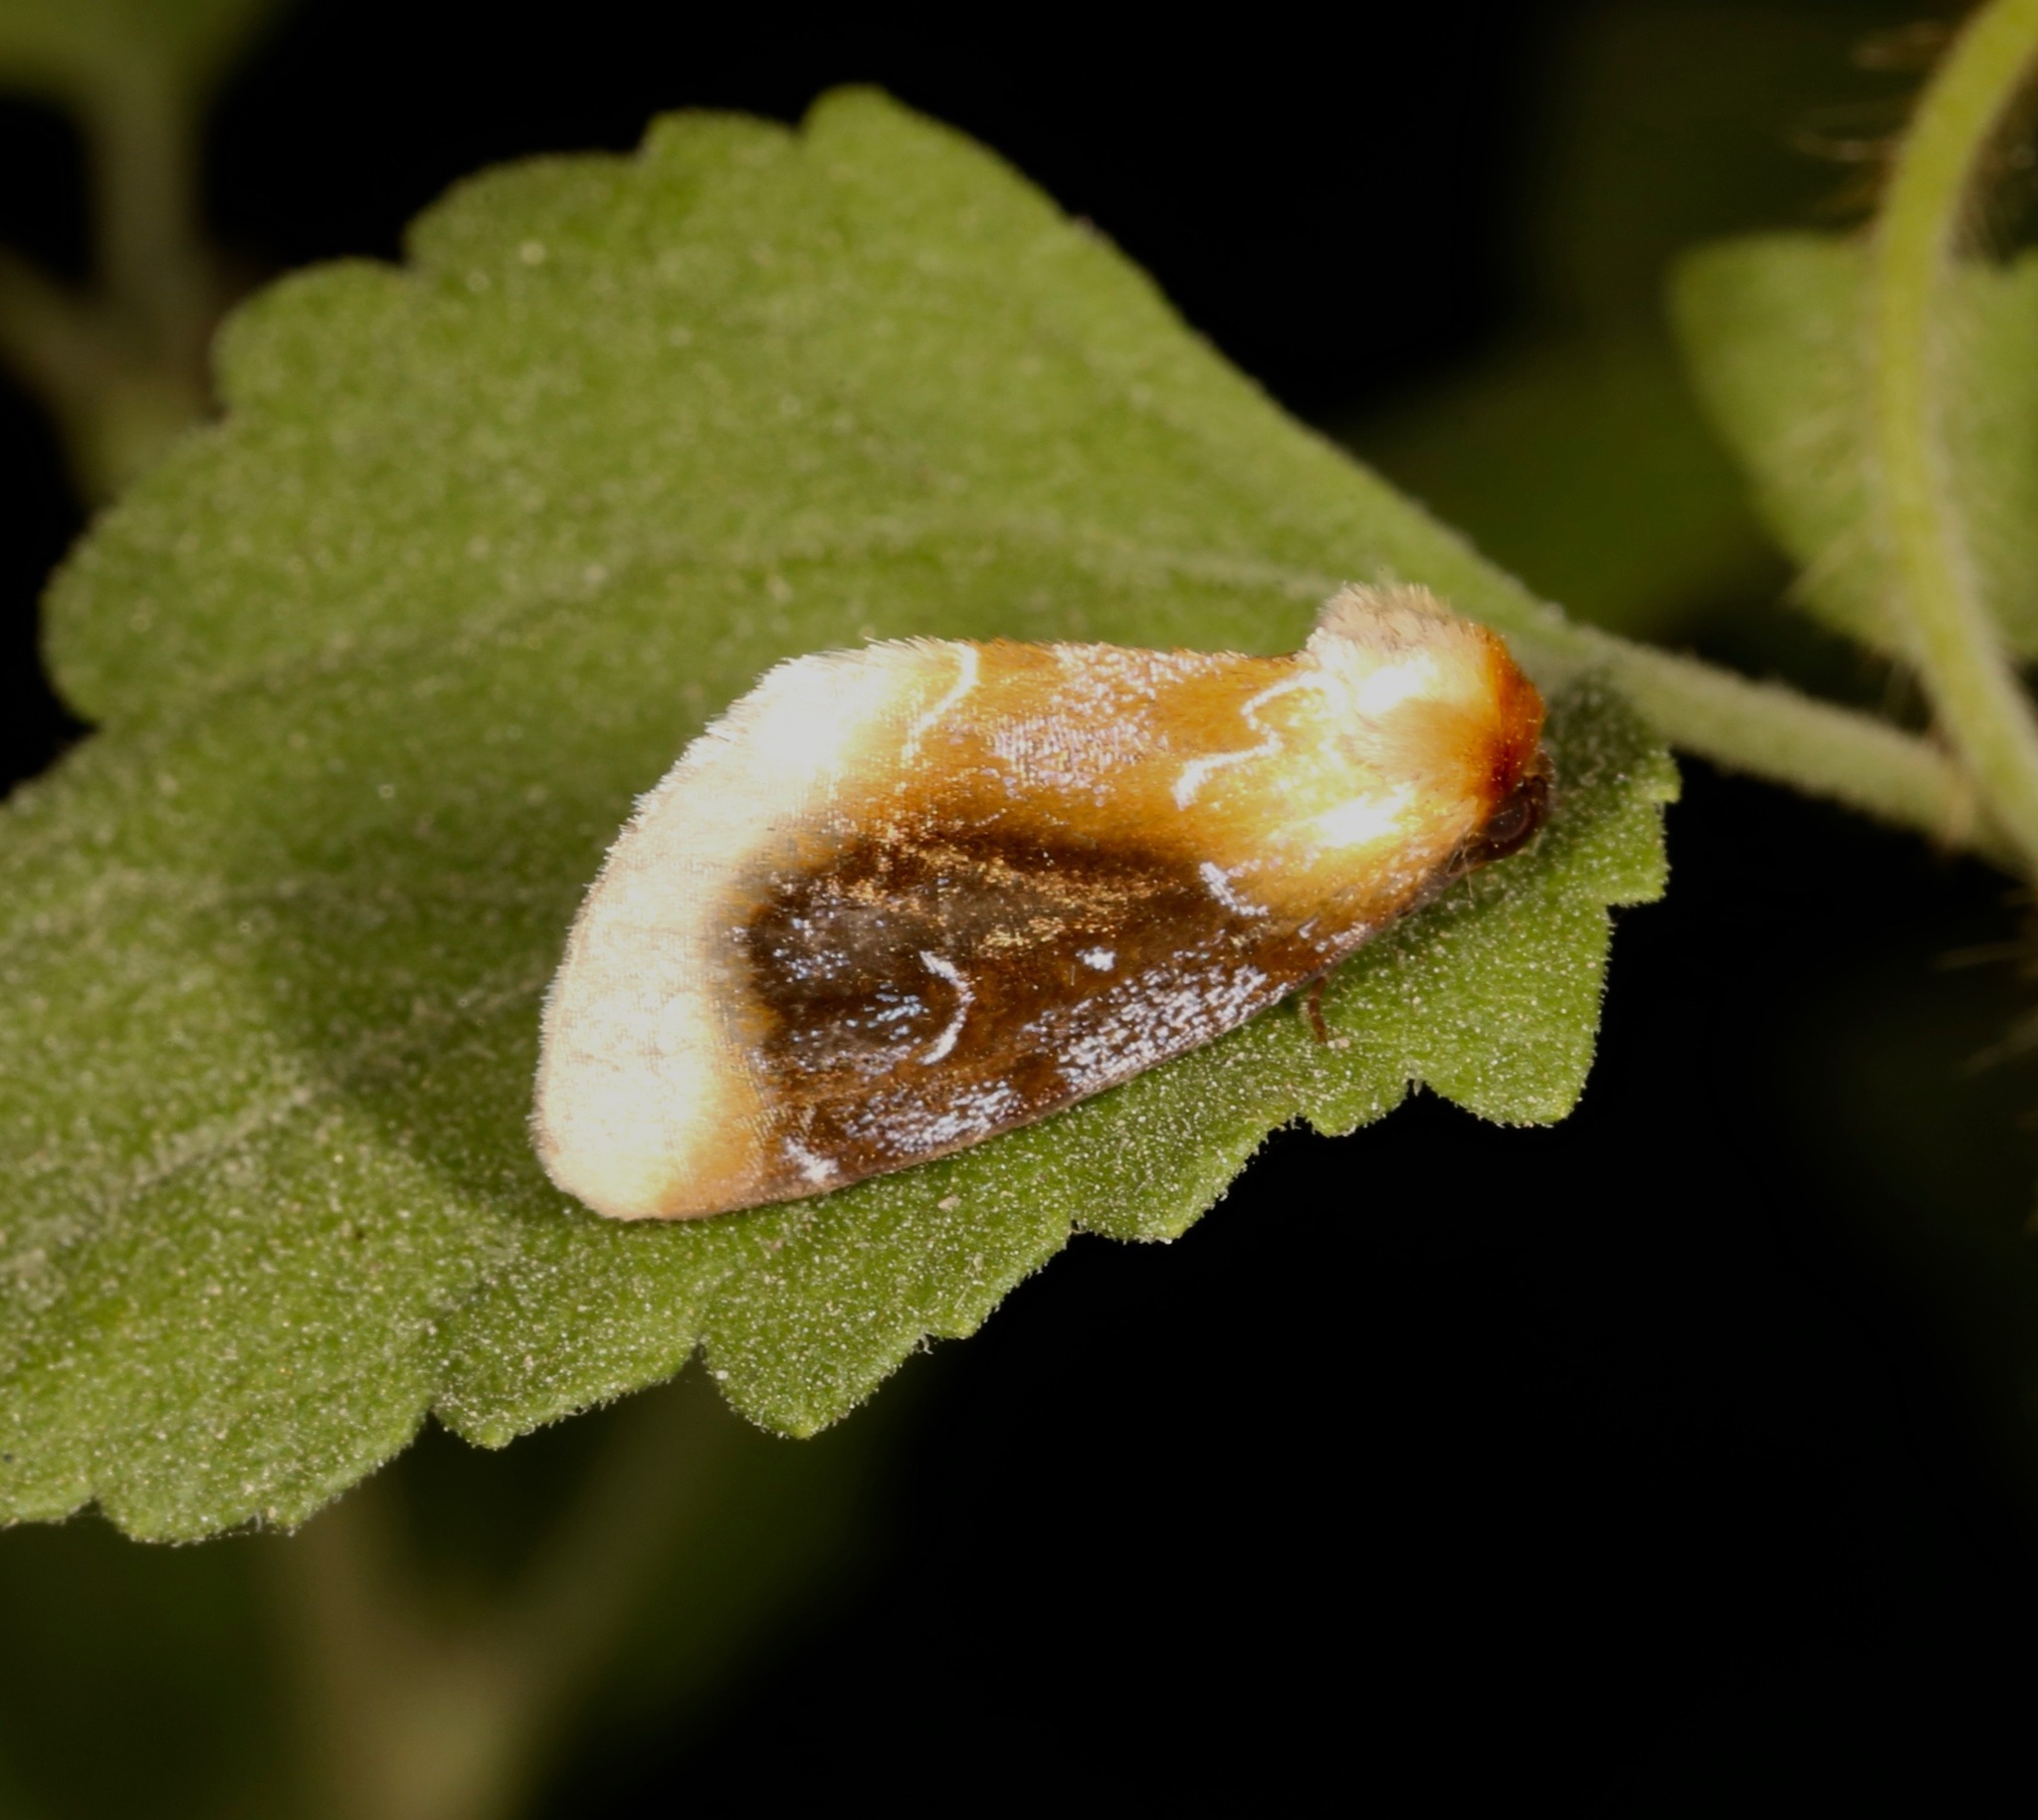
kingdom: Animalia
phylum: Arthropoda
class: Insecta
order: Lepidoptera
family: Noctuidae
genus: Chrysoecia
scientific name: Chrysoecia scira
